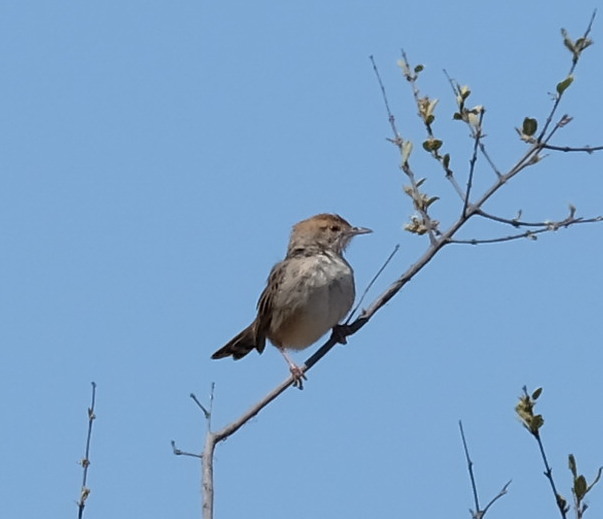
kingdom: Animalia
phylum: Chordata
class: Aves
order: Passeriformes
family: Cisticolidae
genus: Cisticola
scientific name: Cisticola chiniana
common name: Rattling cisticola
